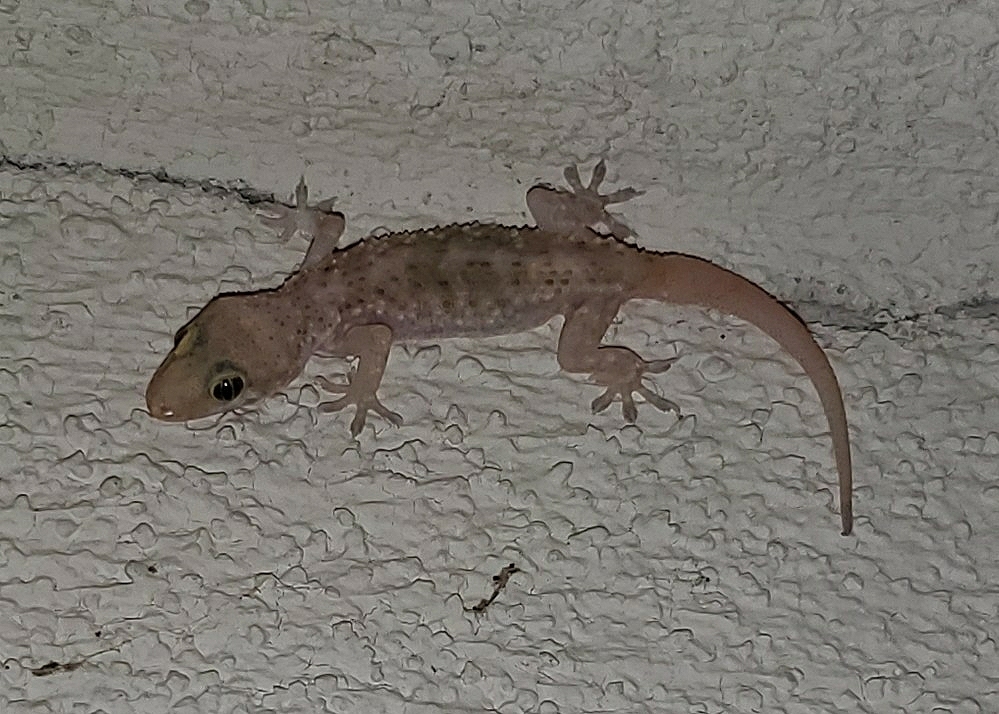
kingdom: Animalia
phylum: Chordata
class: Squamata
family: Gekkonidae
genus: Hemidactylus
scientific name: Hemidactylus turcicus
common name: Turkish gecko
